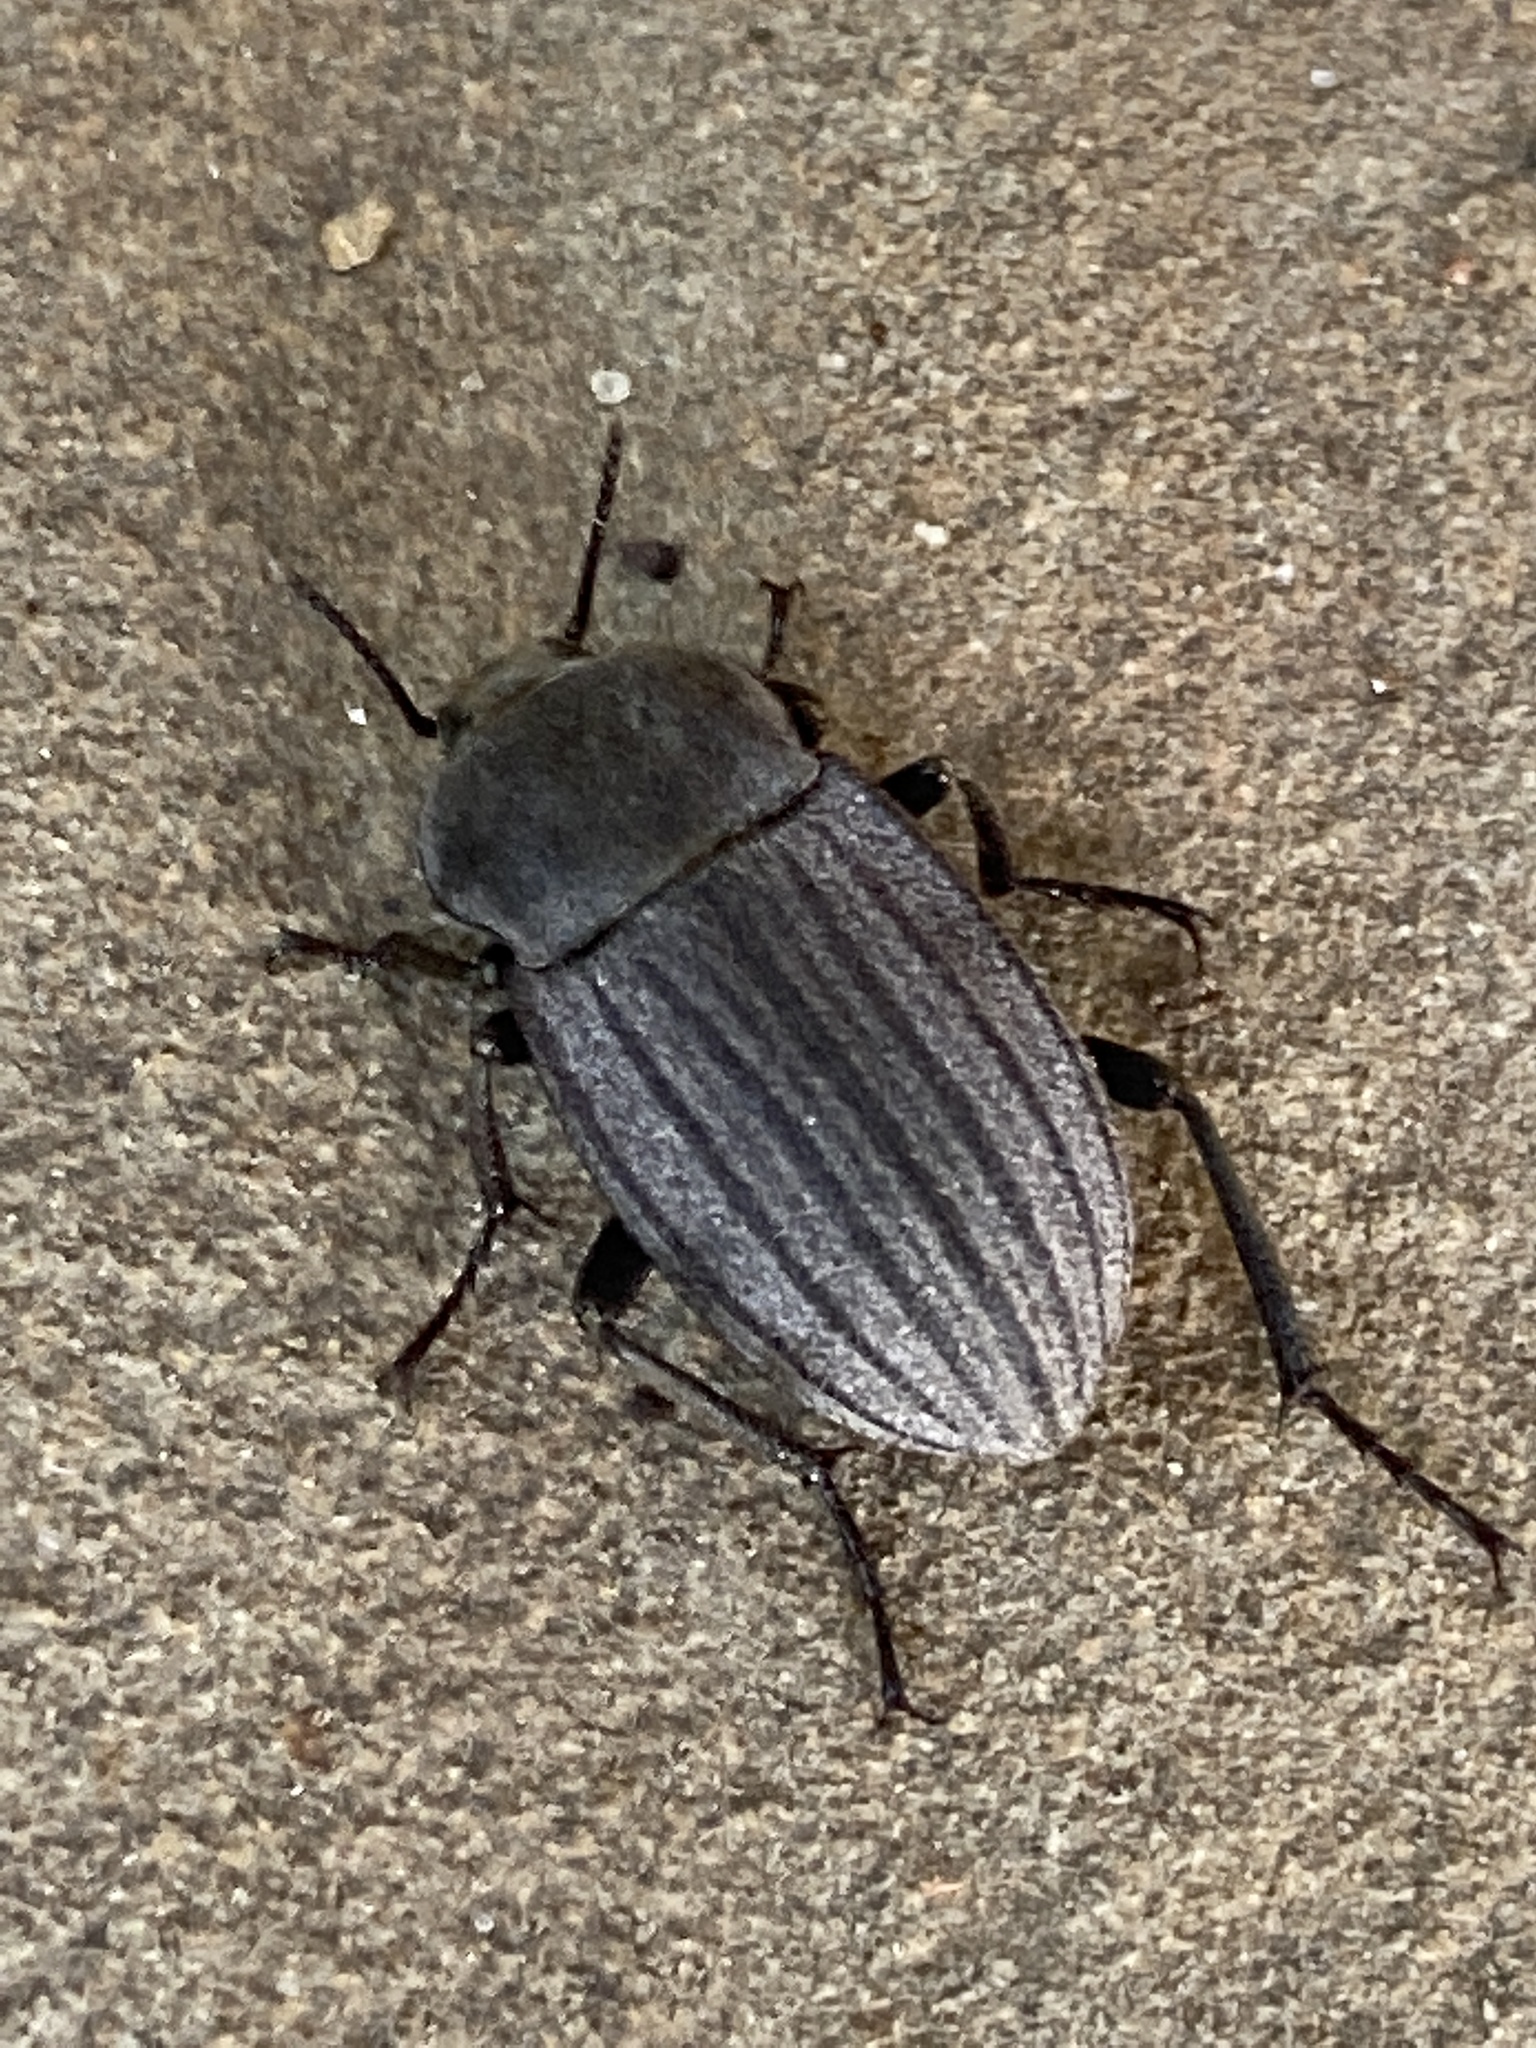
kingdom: Animalia
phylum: Arthropoda
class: Insecta
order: Coleoptera
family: Tenebrionidae
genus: Eleodes
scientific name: Eleodes tricostata
